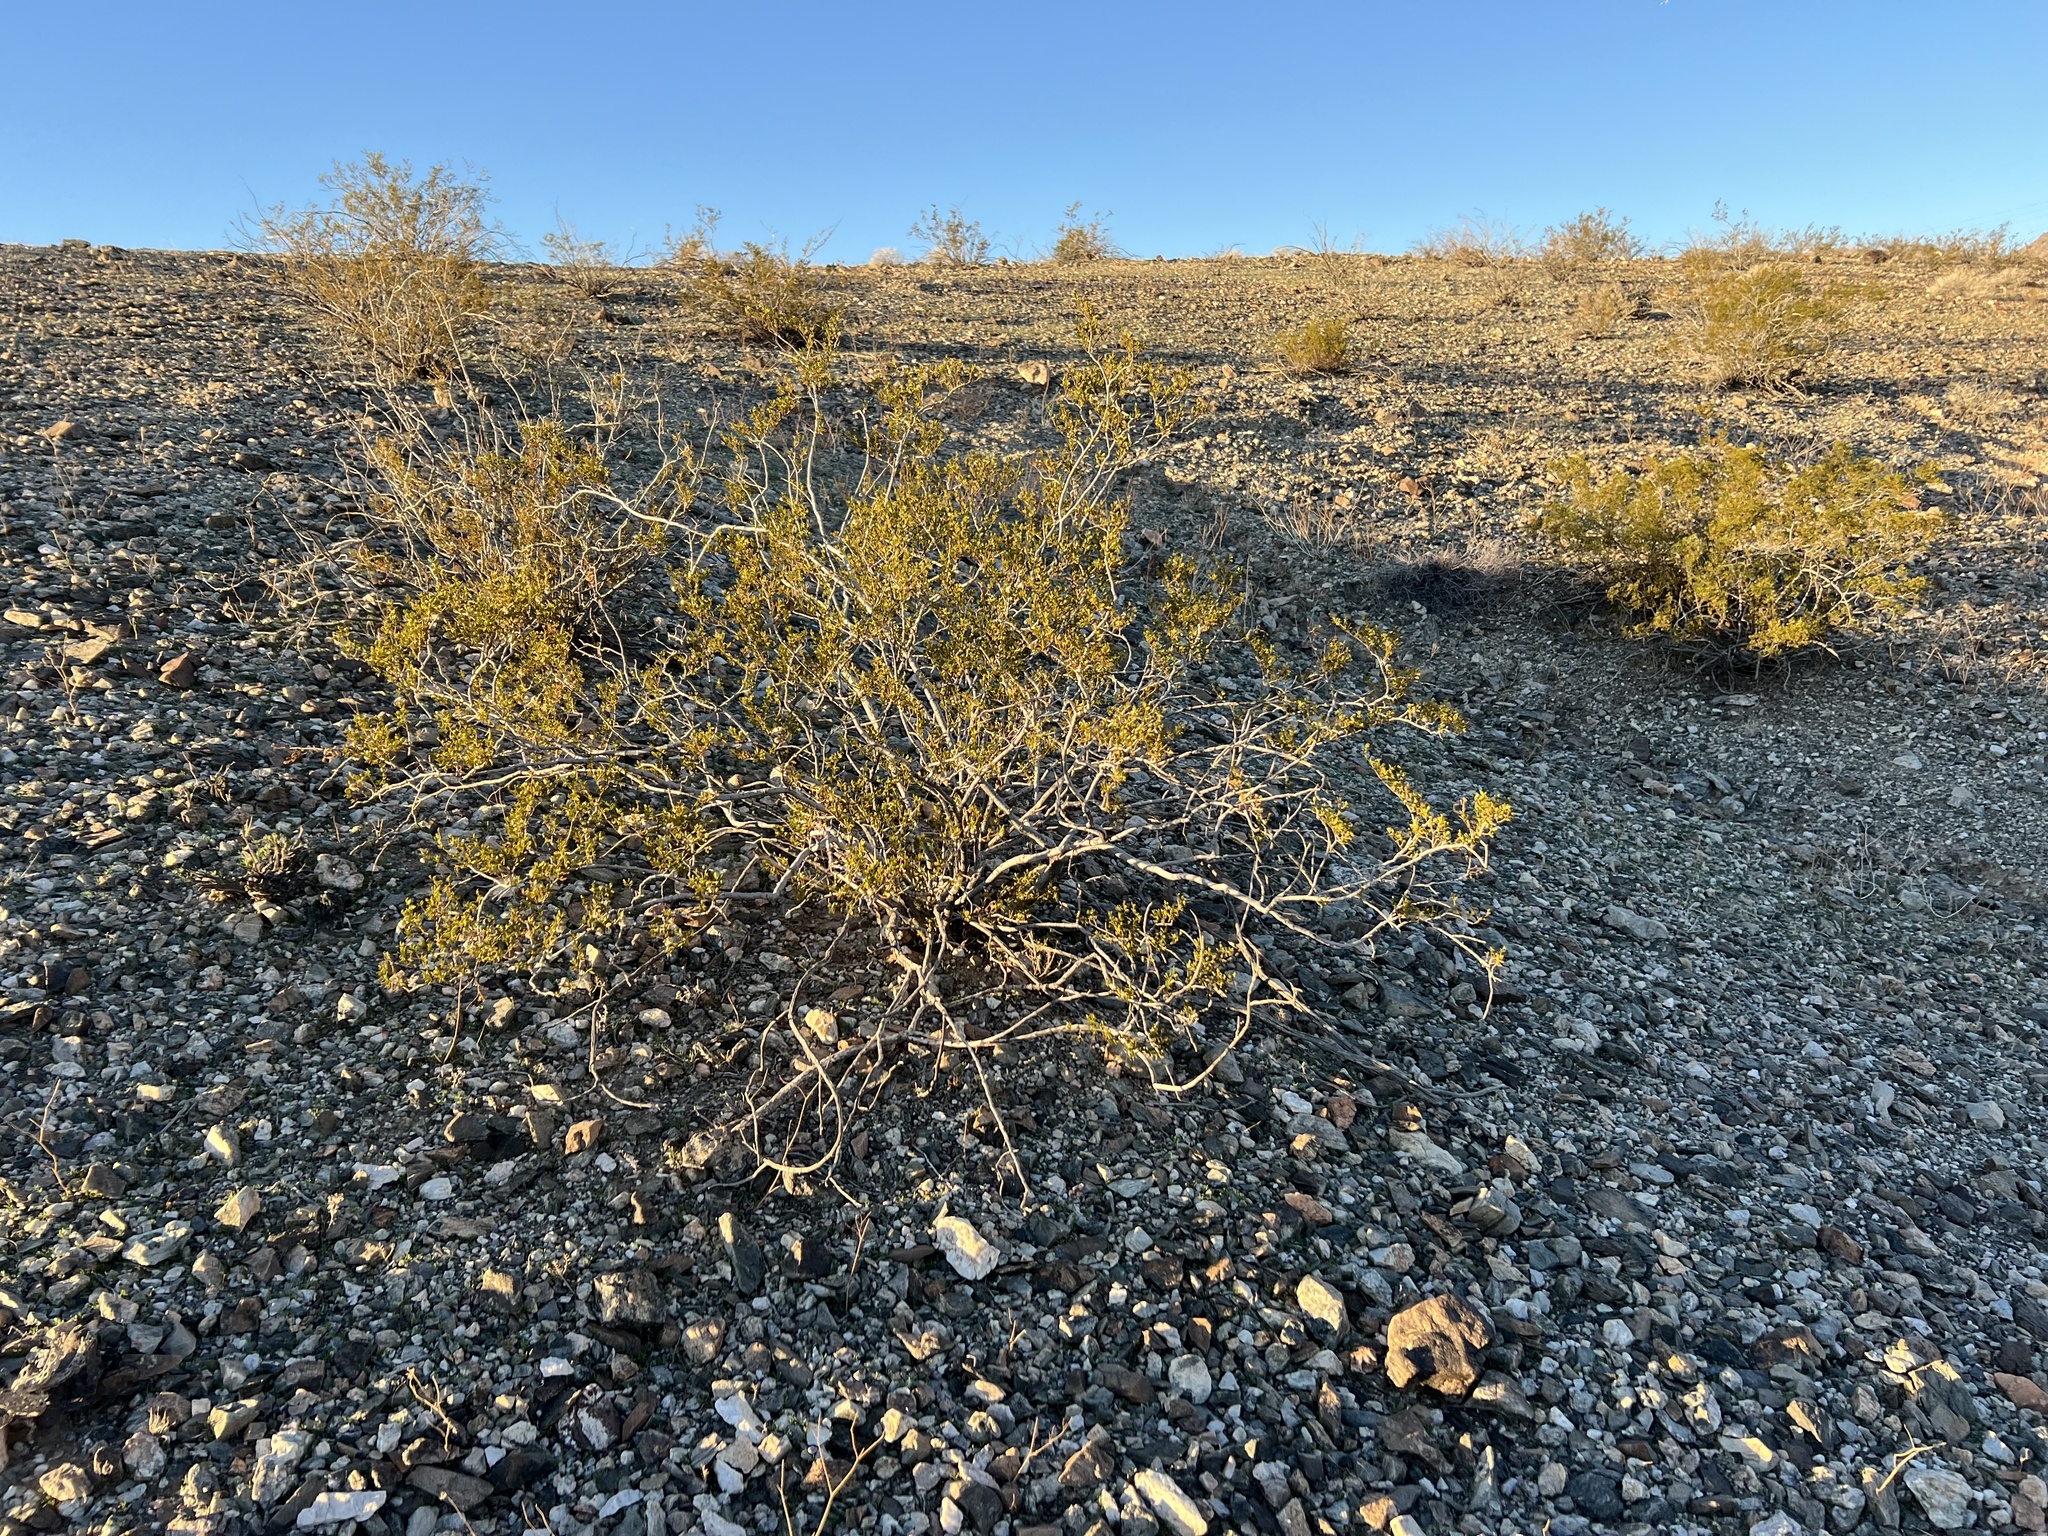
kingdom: Plantae
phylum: Tracheophyta
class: Magnoliopsida
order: Zygophyllales
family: Zygophyllaceae
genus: Larrea
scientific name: Larrea tridentata
